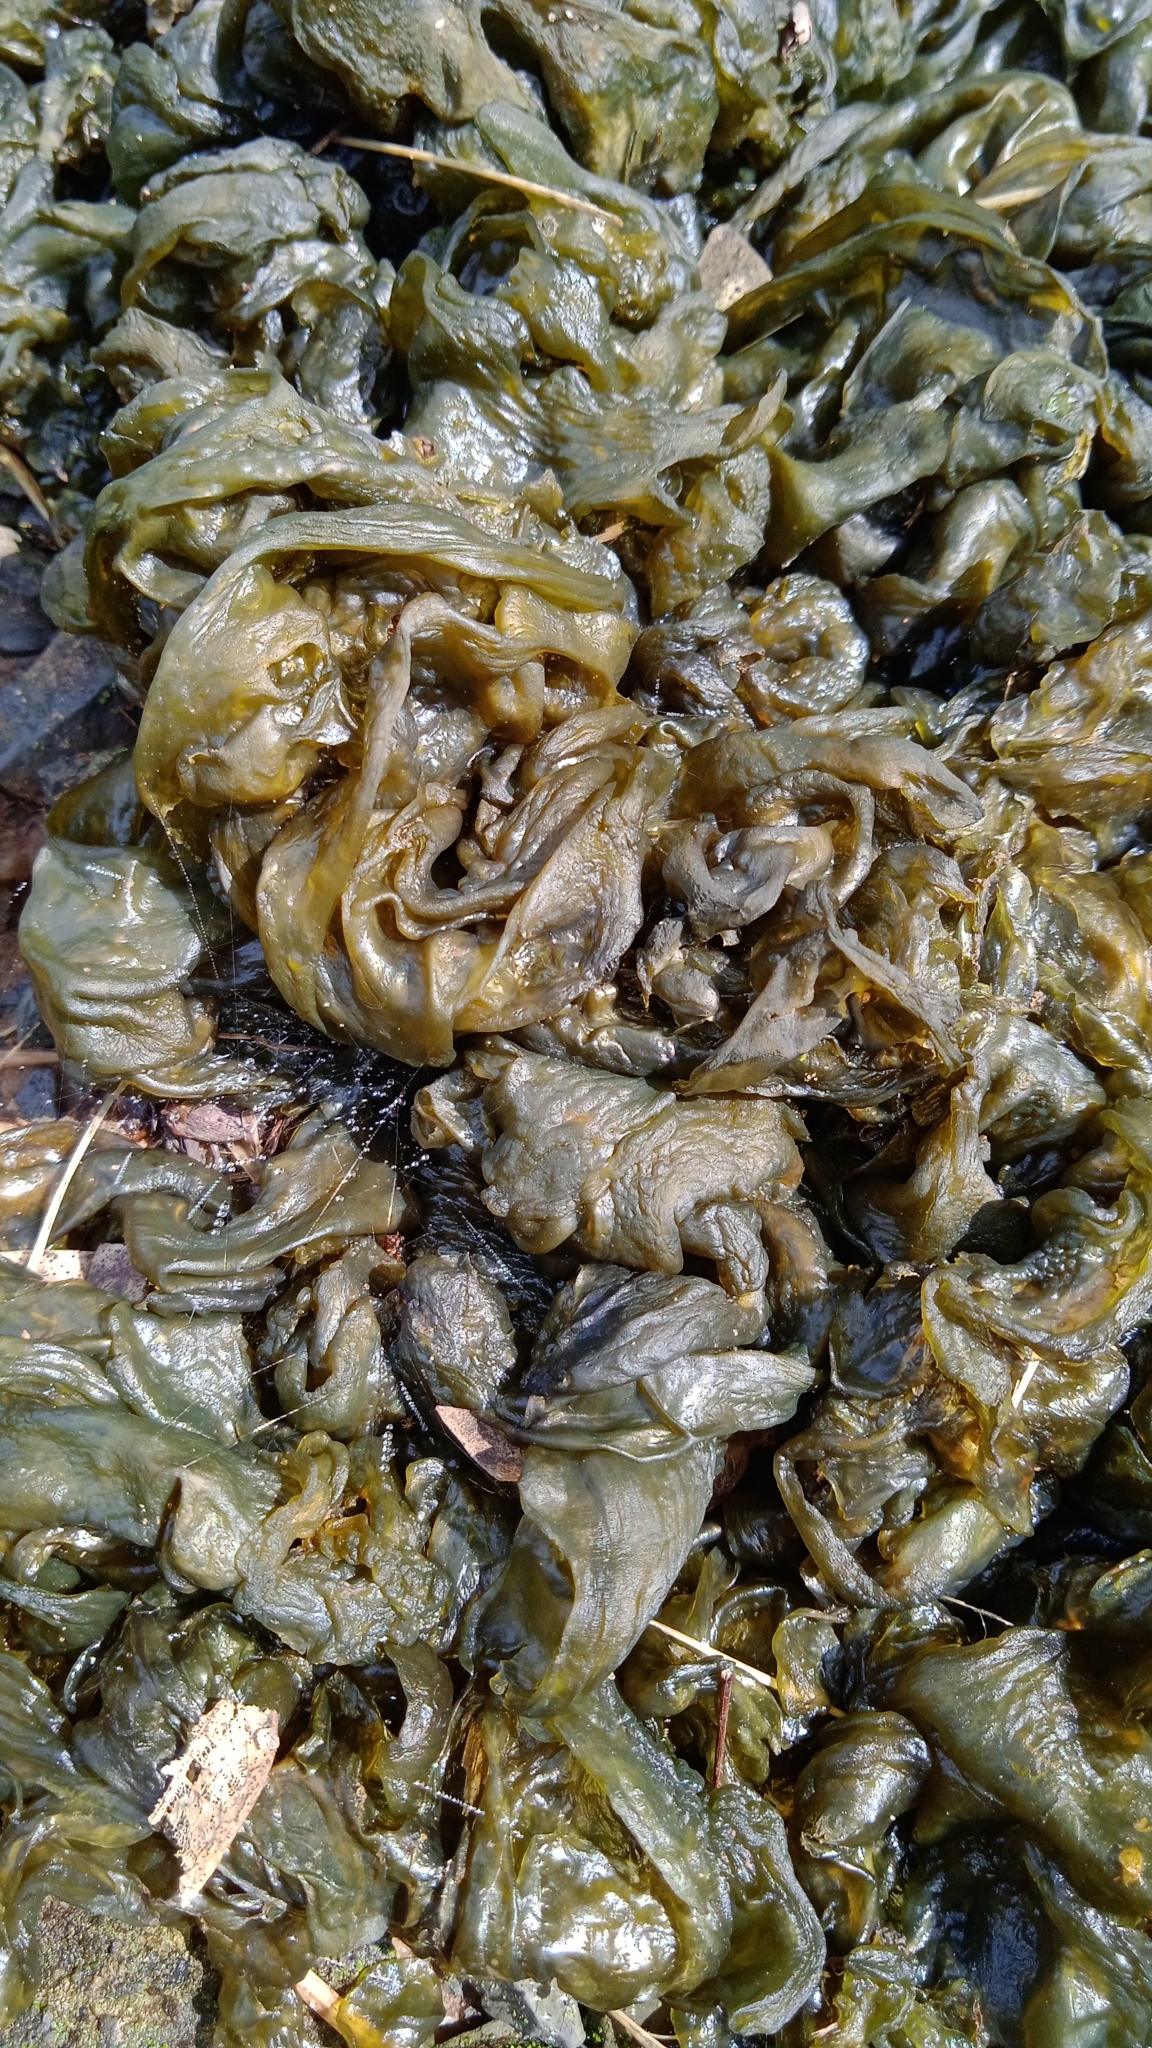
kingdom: Bacteria
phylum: Cyanobacteria
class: Cyanobacteriia
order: Cyanobacteriales
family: Nostocaceae
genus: Nostoc
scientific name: Nostoc commune
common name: Star jelly
